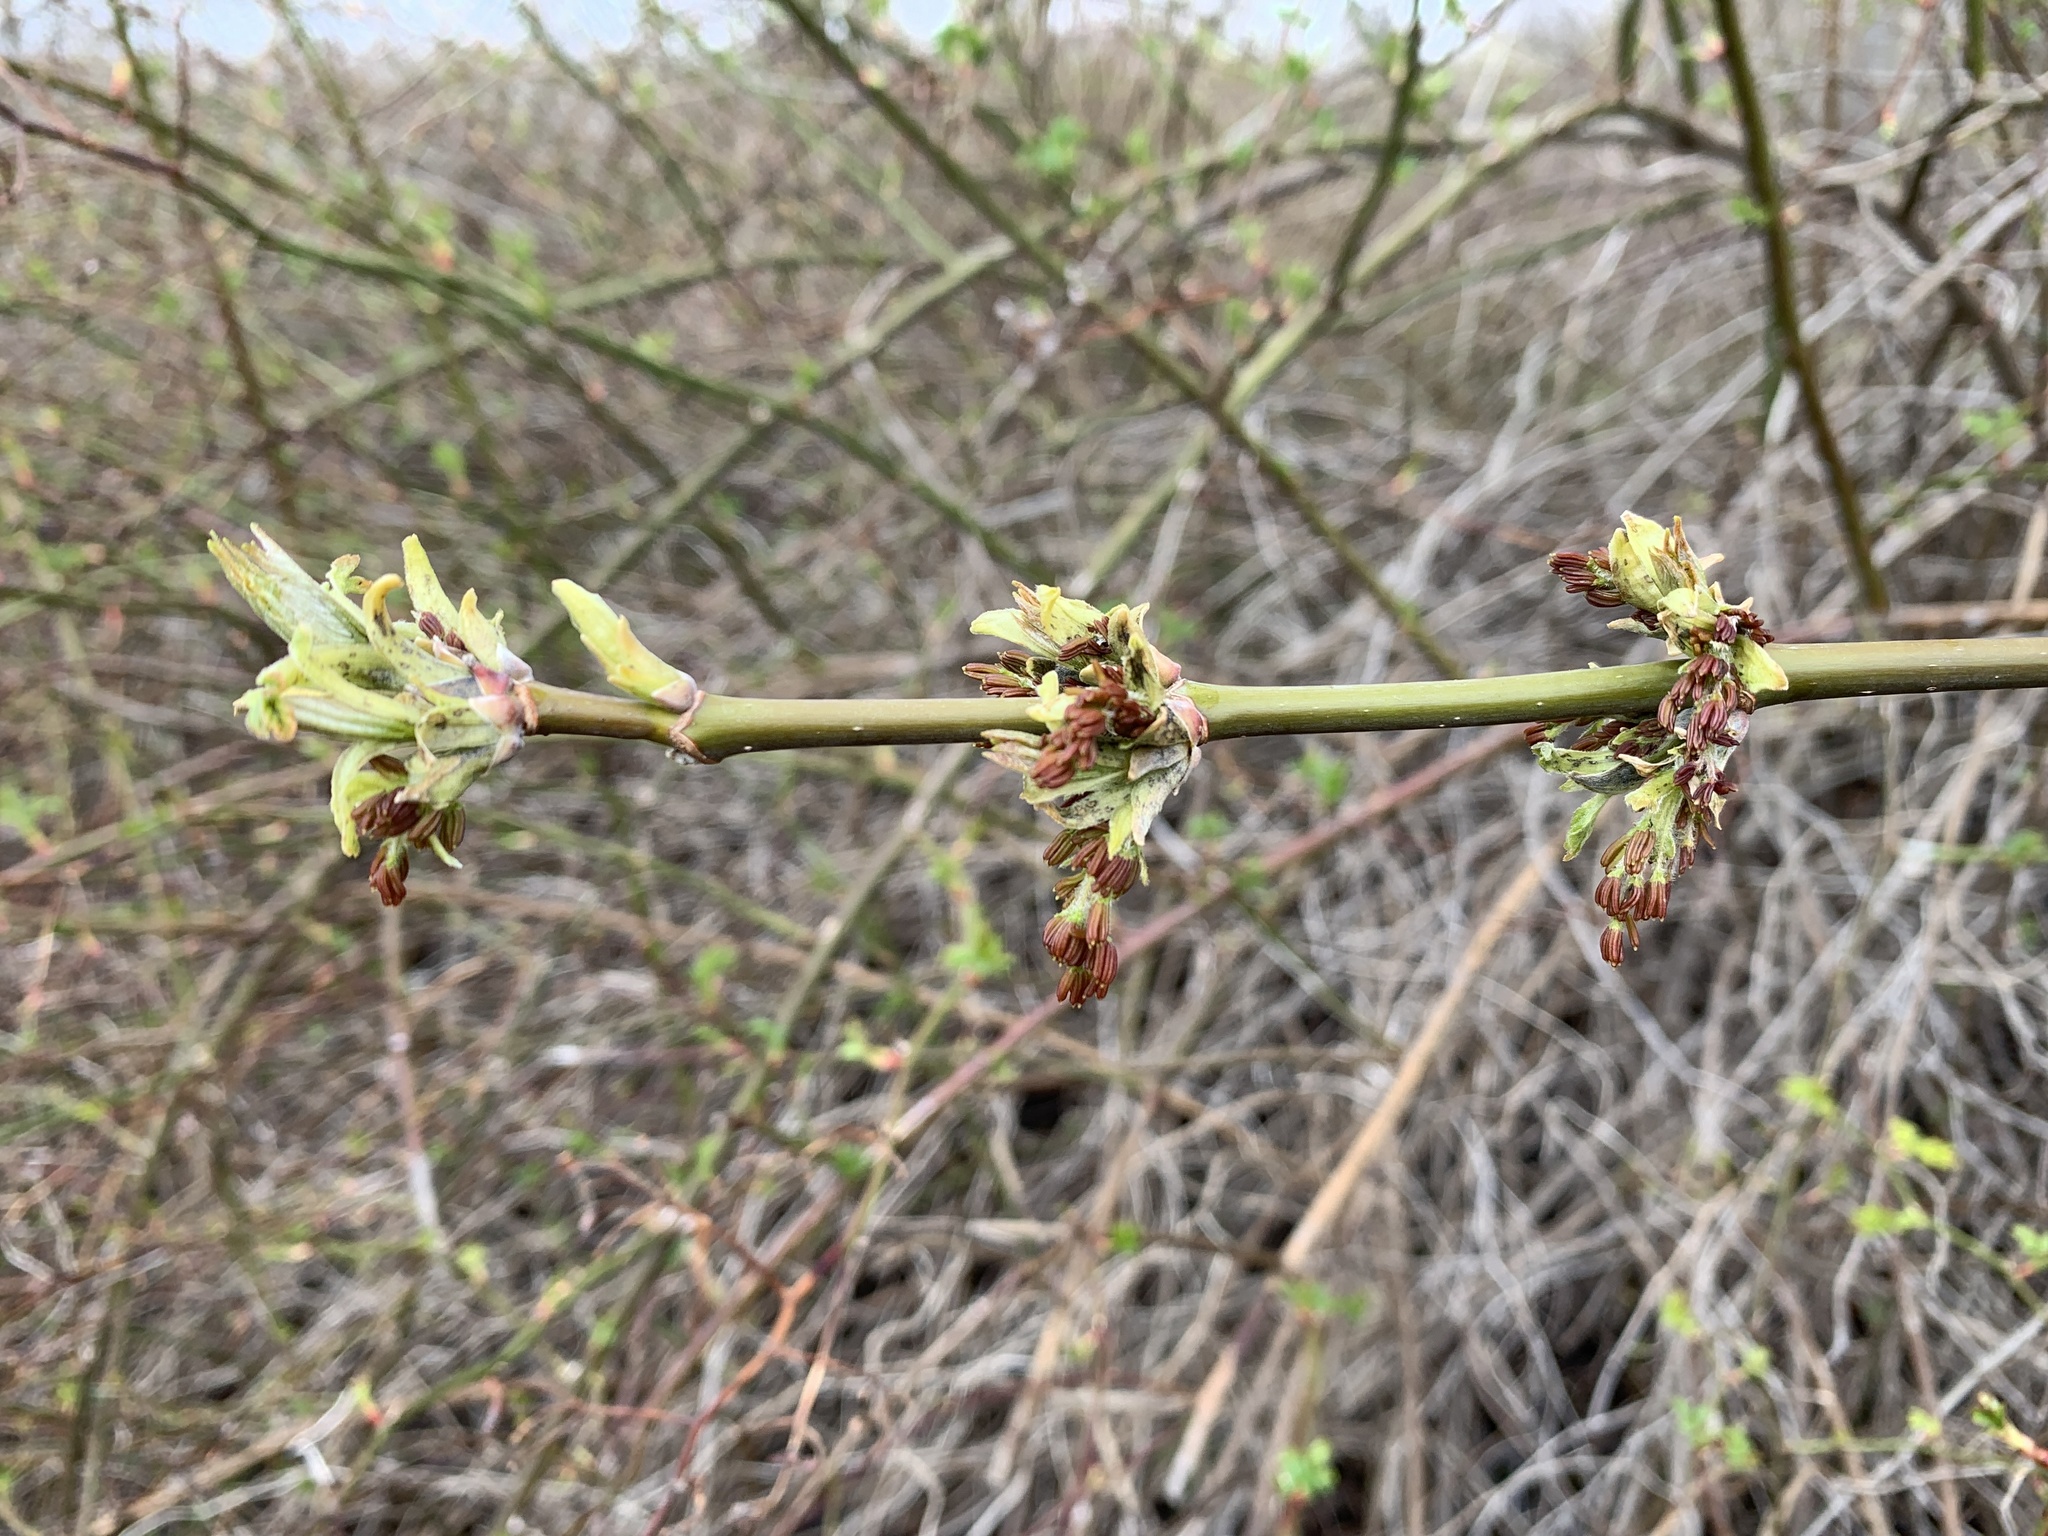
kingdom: Plantae
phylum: Tracheophyta
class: Magnoliopsida
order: Sapindales
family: Sapindaceae
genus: Acer
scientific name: Acer negundo
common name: Ashleaf maple
